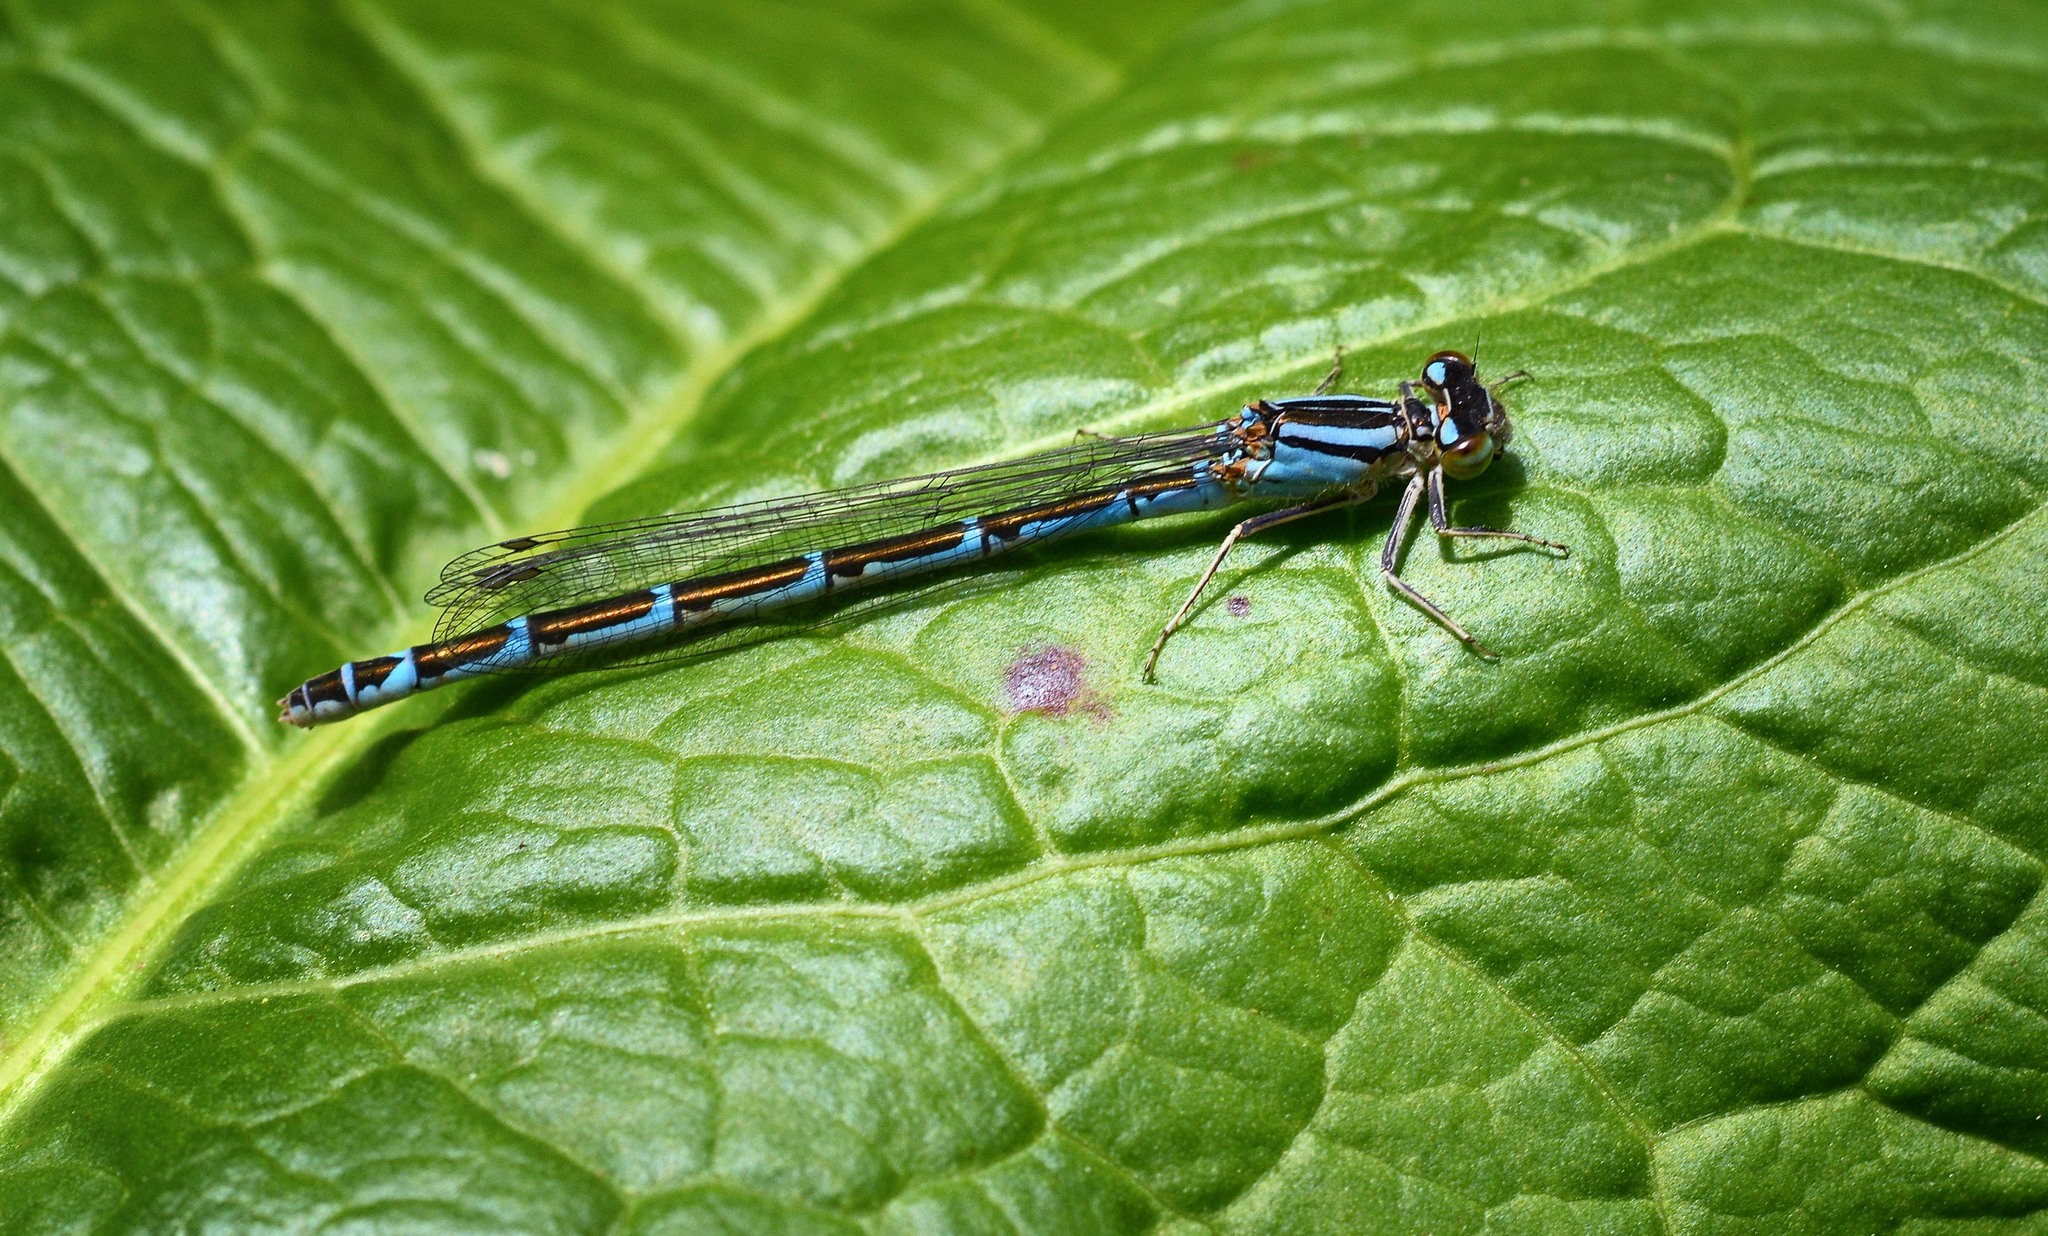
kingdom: Animalia
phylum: Arthropoda
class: Insecta
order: Odonata
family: Coenagrionidae
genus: Enallagma
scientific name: Enallagma cyathigerum
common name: Common blue damselfly
